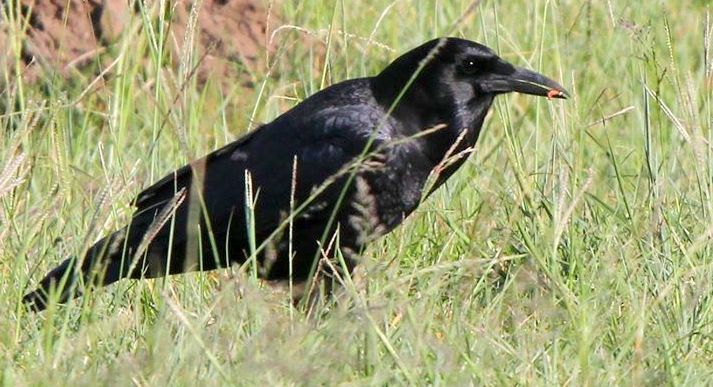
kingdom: Animalia
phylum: Chordata
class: Aves
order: Passeriformes
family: Corvidae
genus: Corvus
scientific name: Corvus capensis
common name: Cape crow
